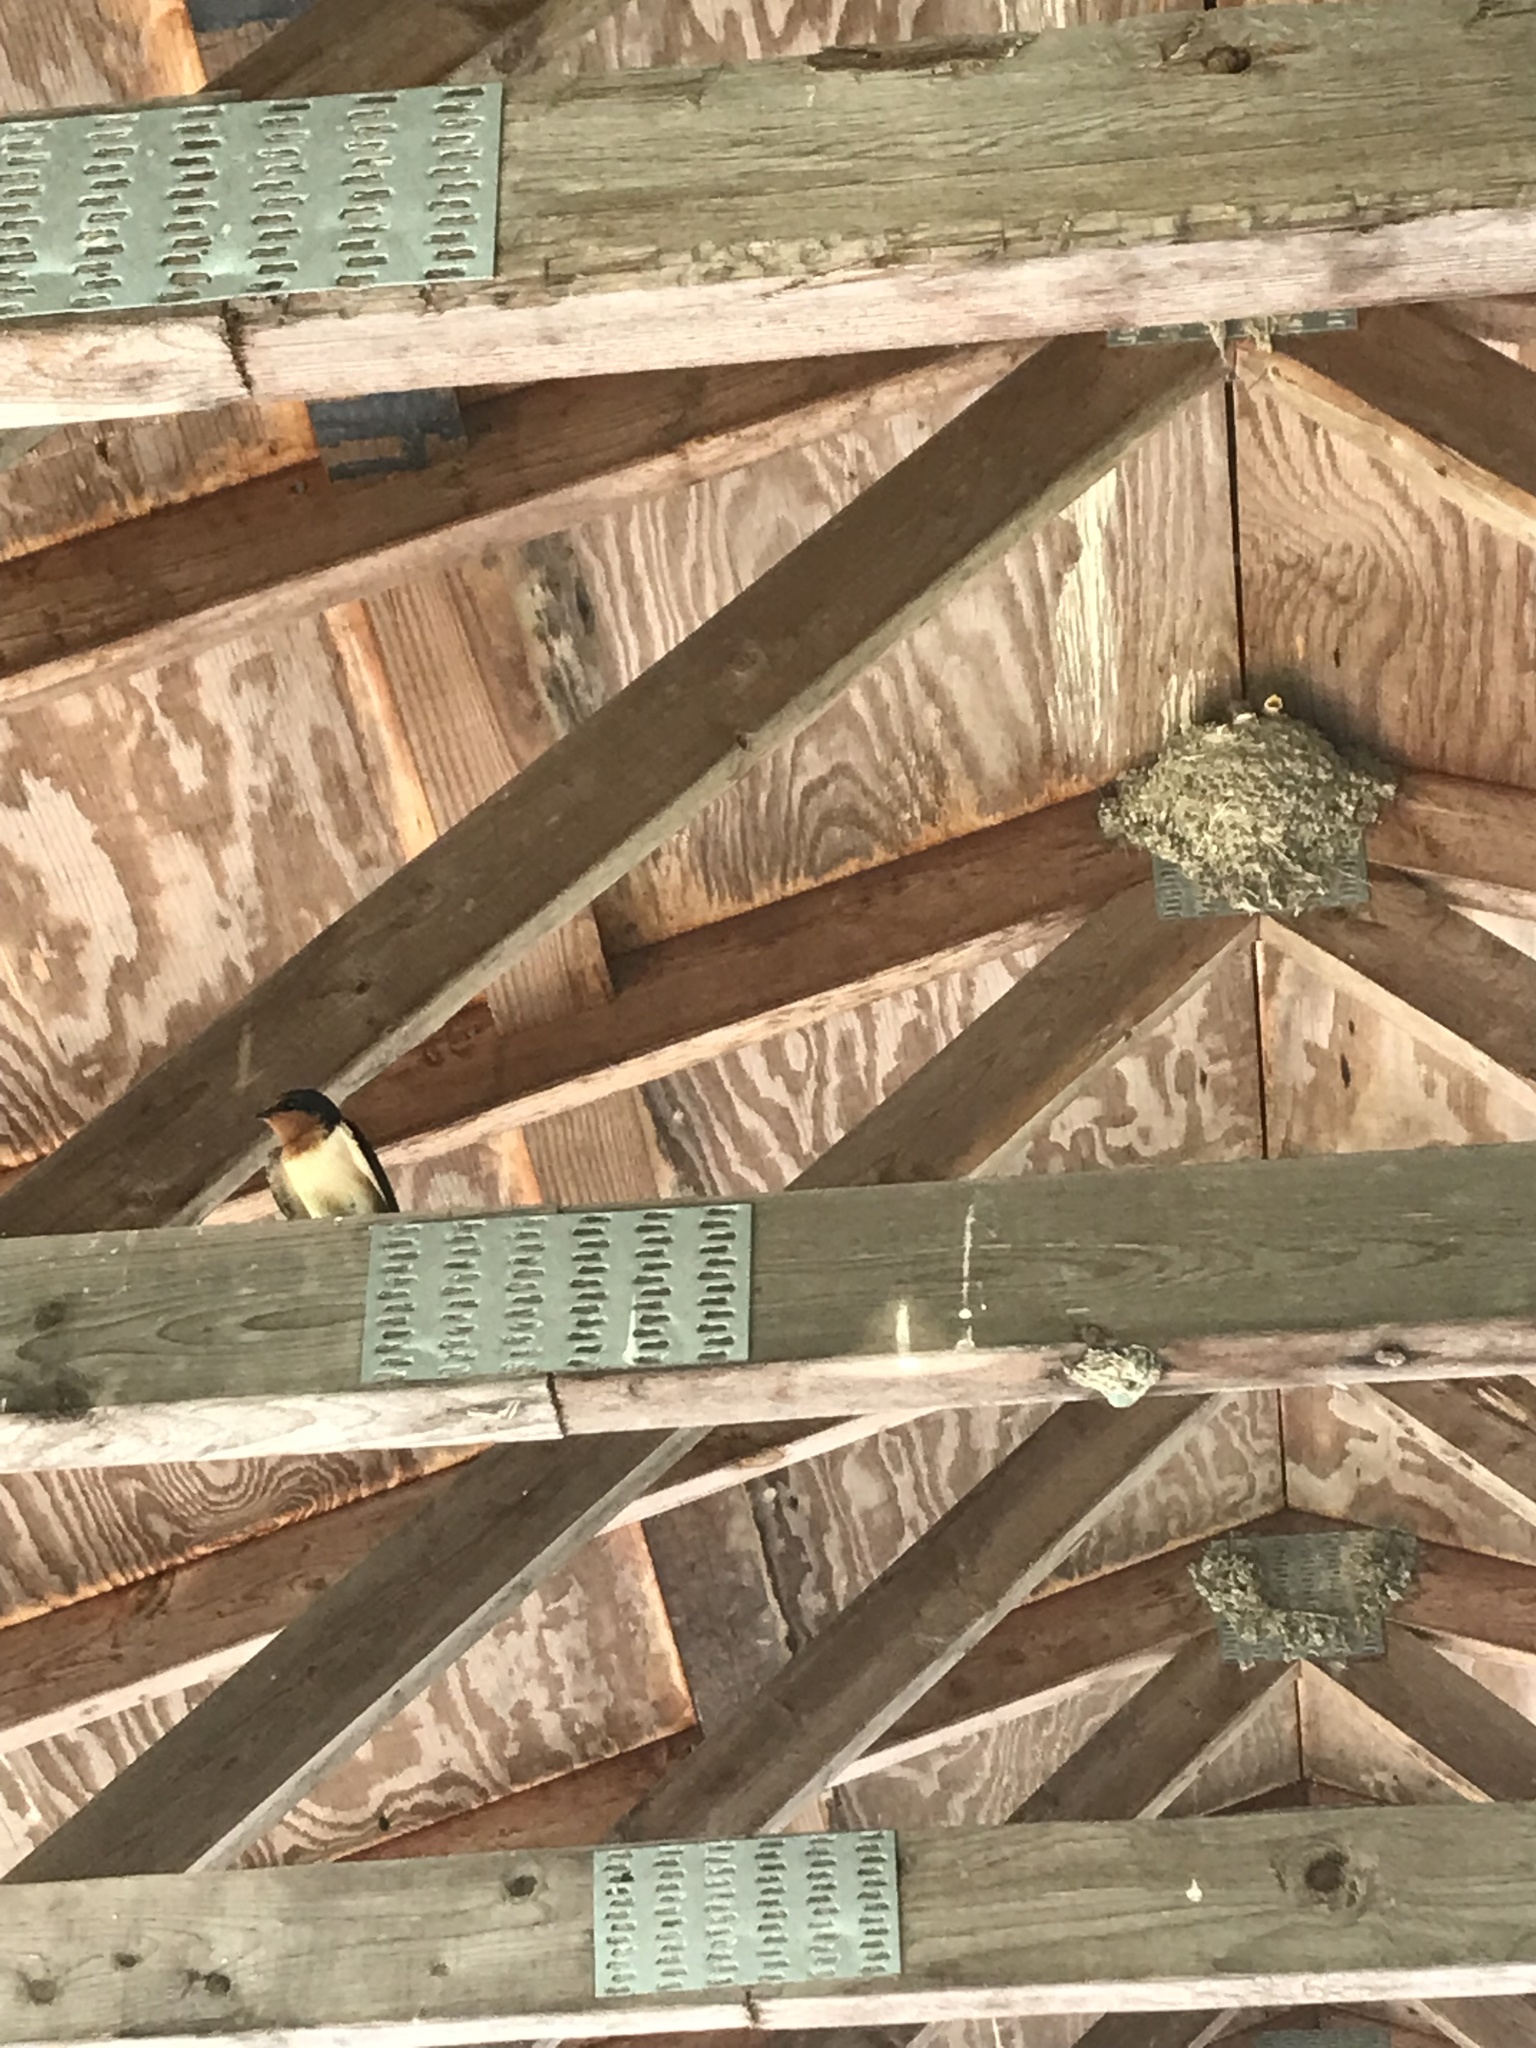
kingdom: Animalia
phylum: Chordata
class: Aves
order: Passeriformes
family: Hirundinidae
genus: Hirundo
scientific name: Hirundo rustica
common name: Barn swallow
